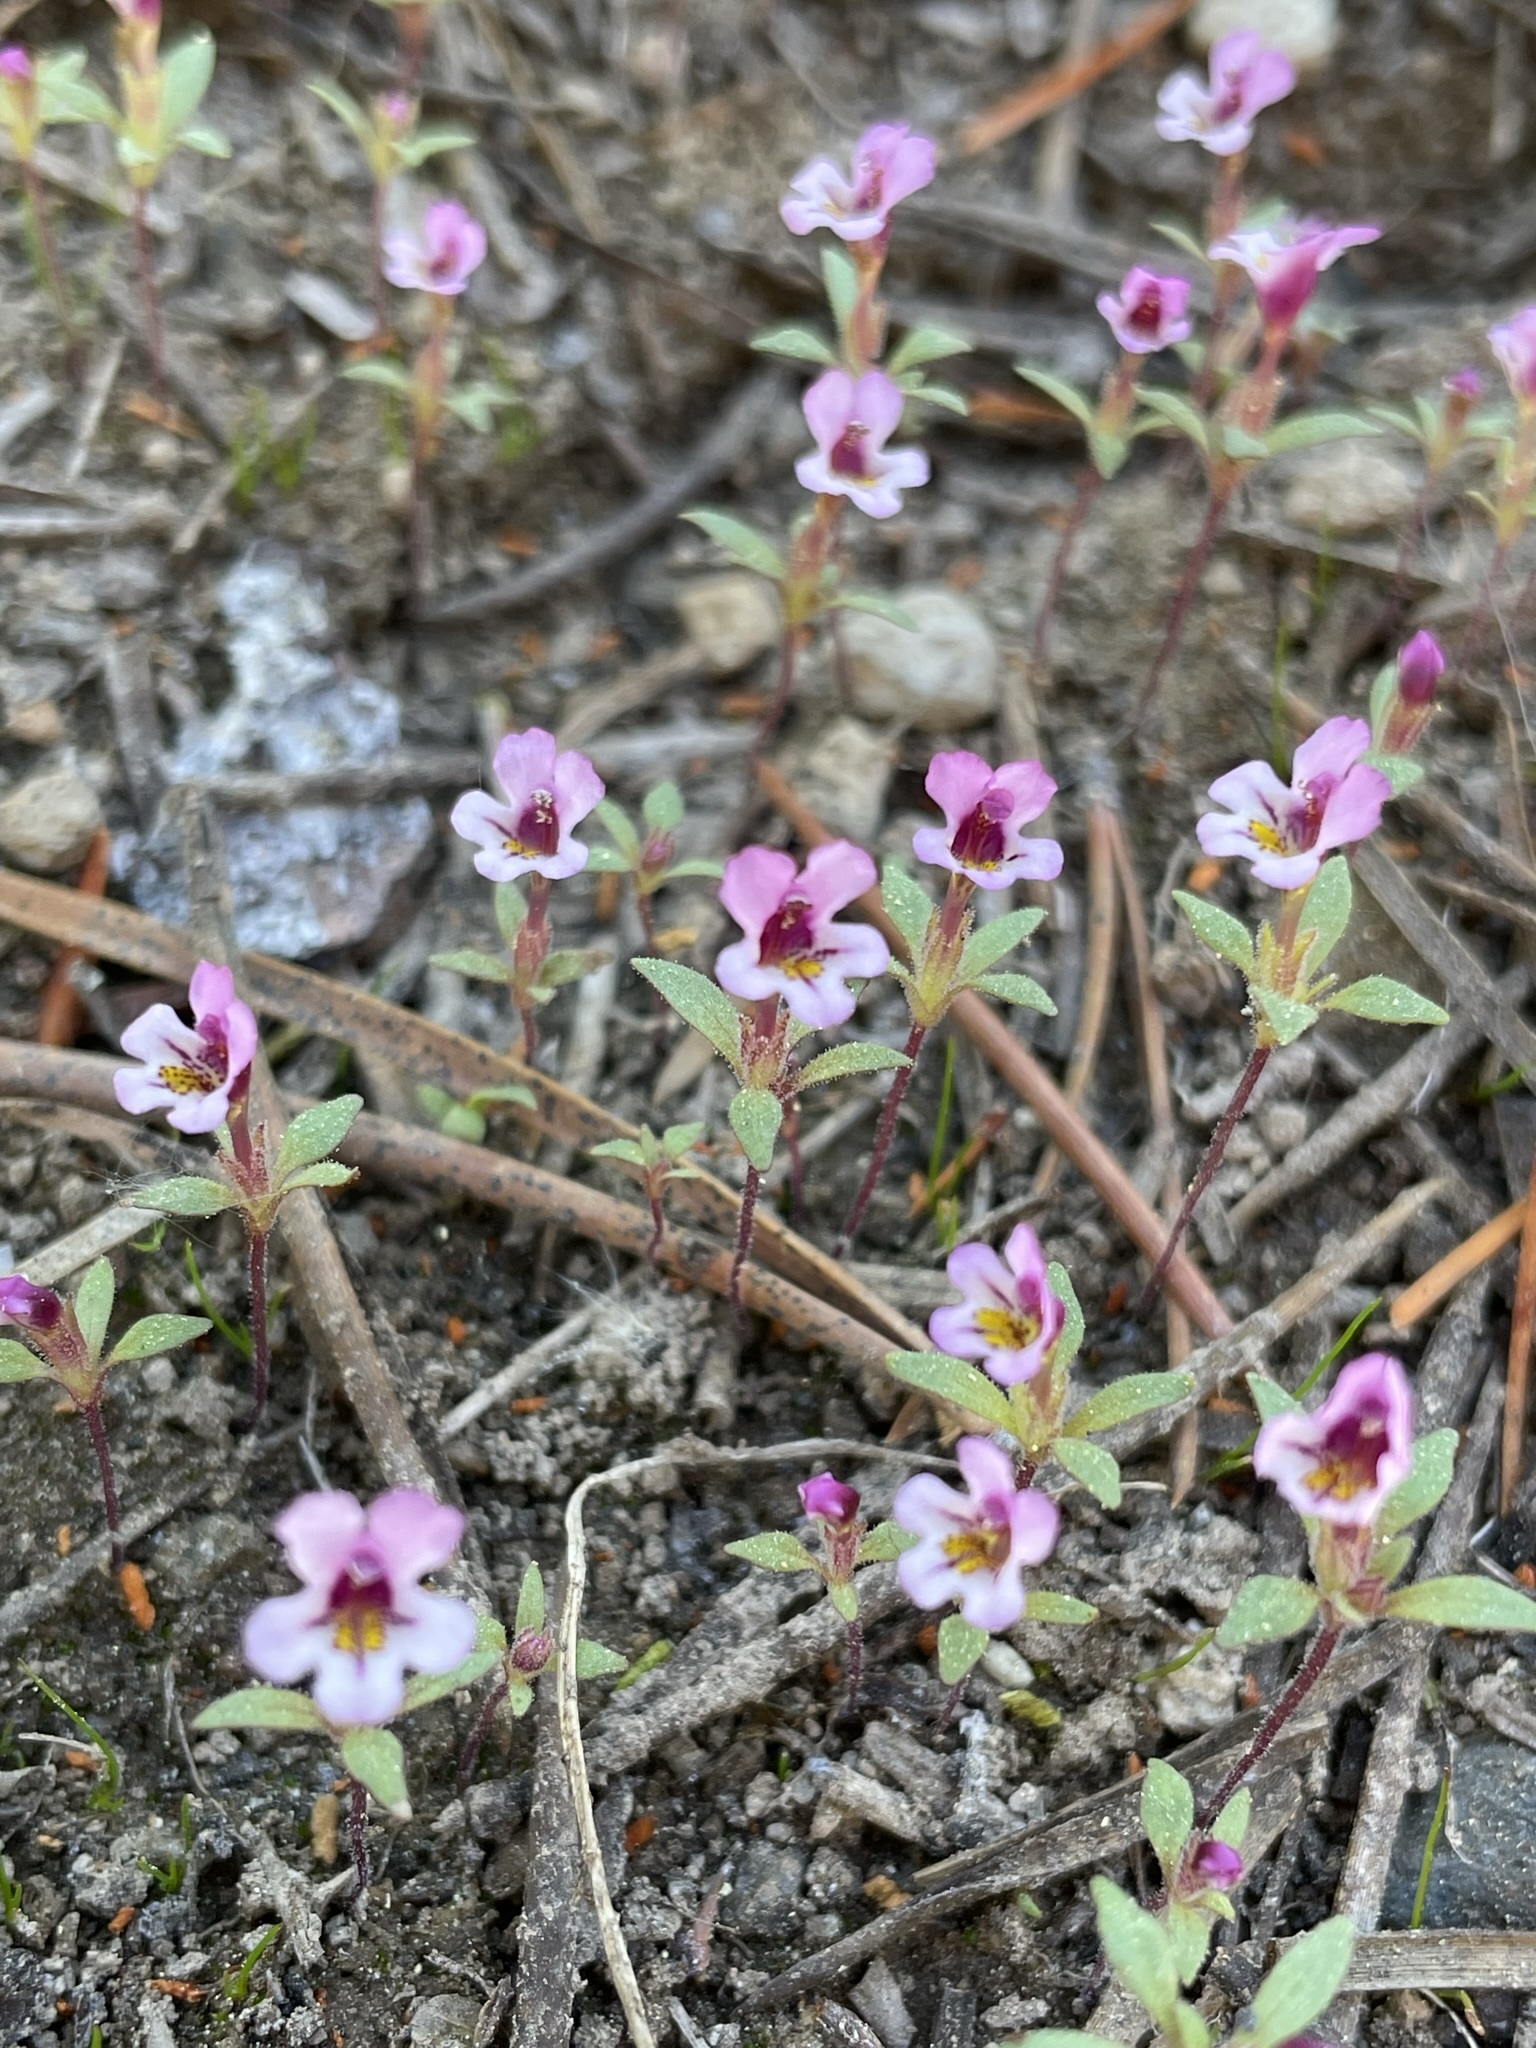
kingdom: Plantae
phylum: Tracheophyta
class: Magnoliopsida
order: Lamiales
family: Phrymaceae
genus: Diplacus
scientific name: Diplacus jepsonii
